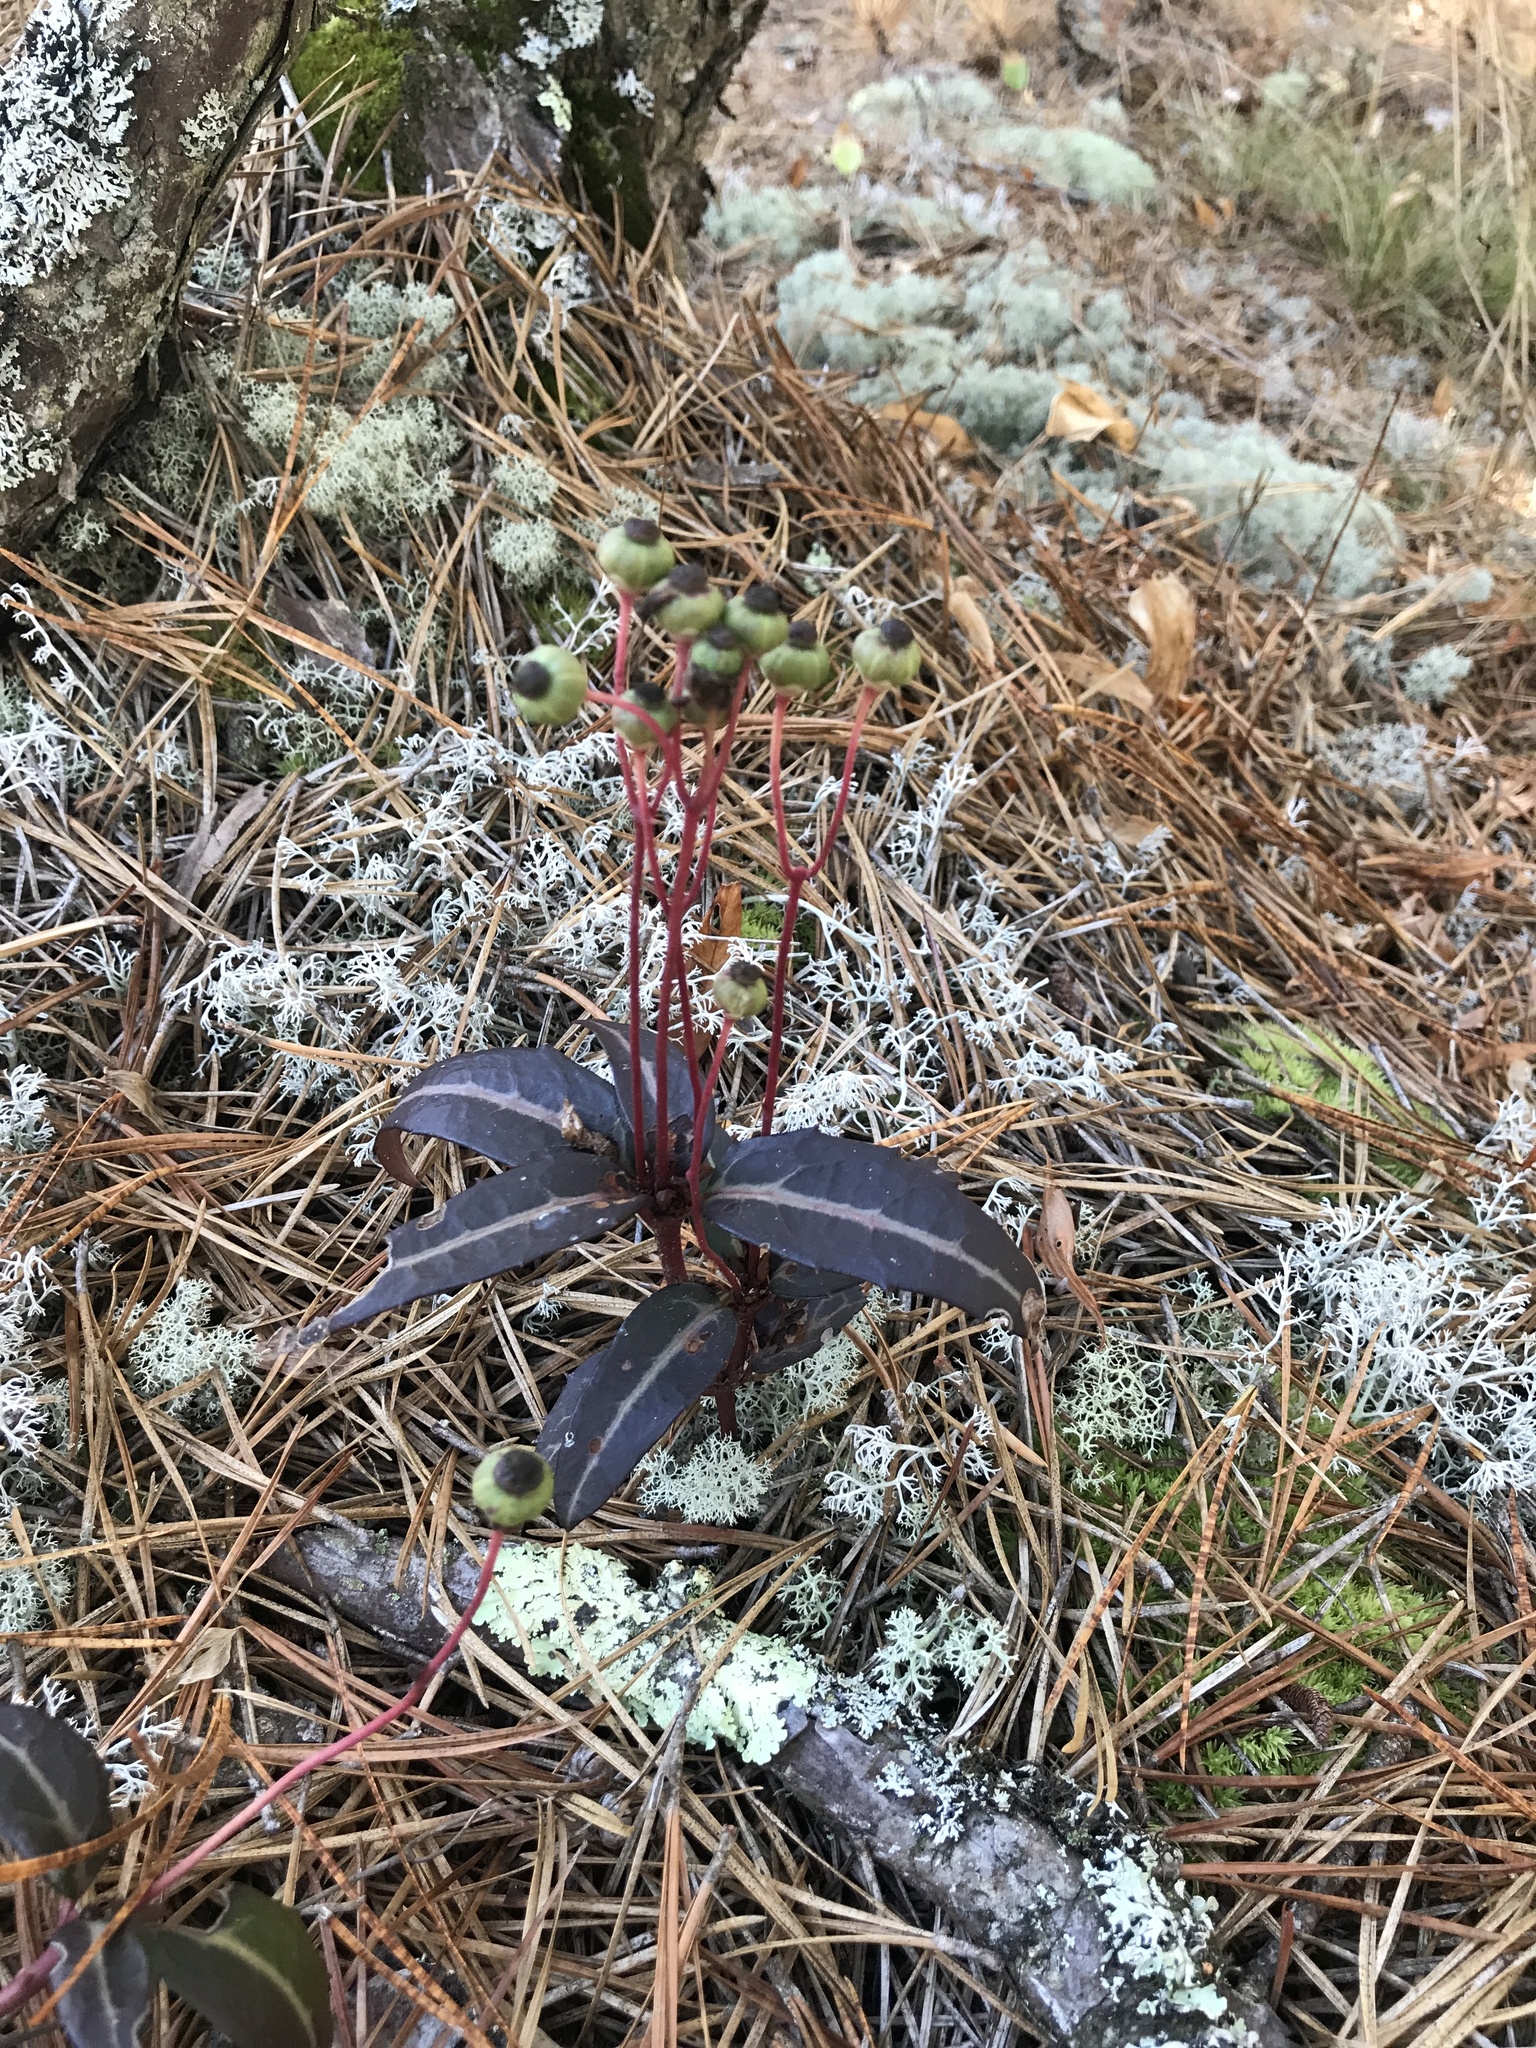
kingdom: Plantae
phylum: Tracheophyta
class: Magnoliopsida
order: Ericales
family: Ericaceae
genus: Chimaphila
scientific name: Chimaphila maculata
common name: Spotted pipsissewa
